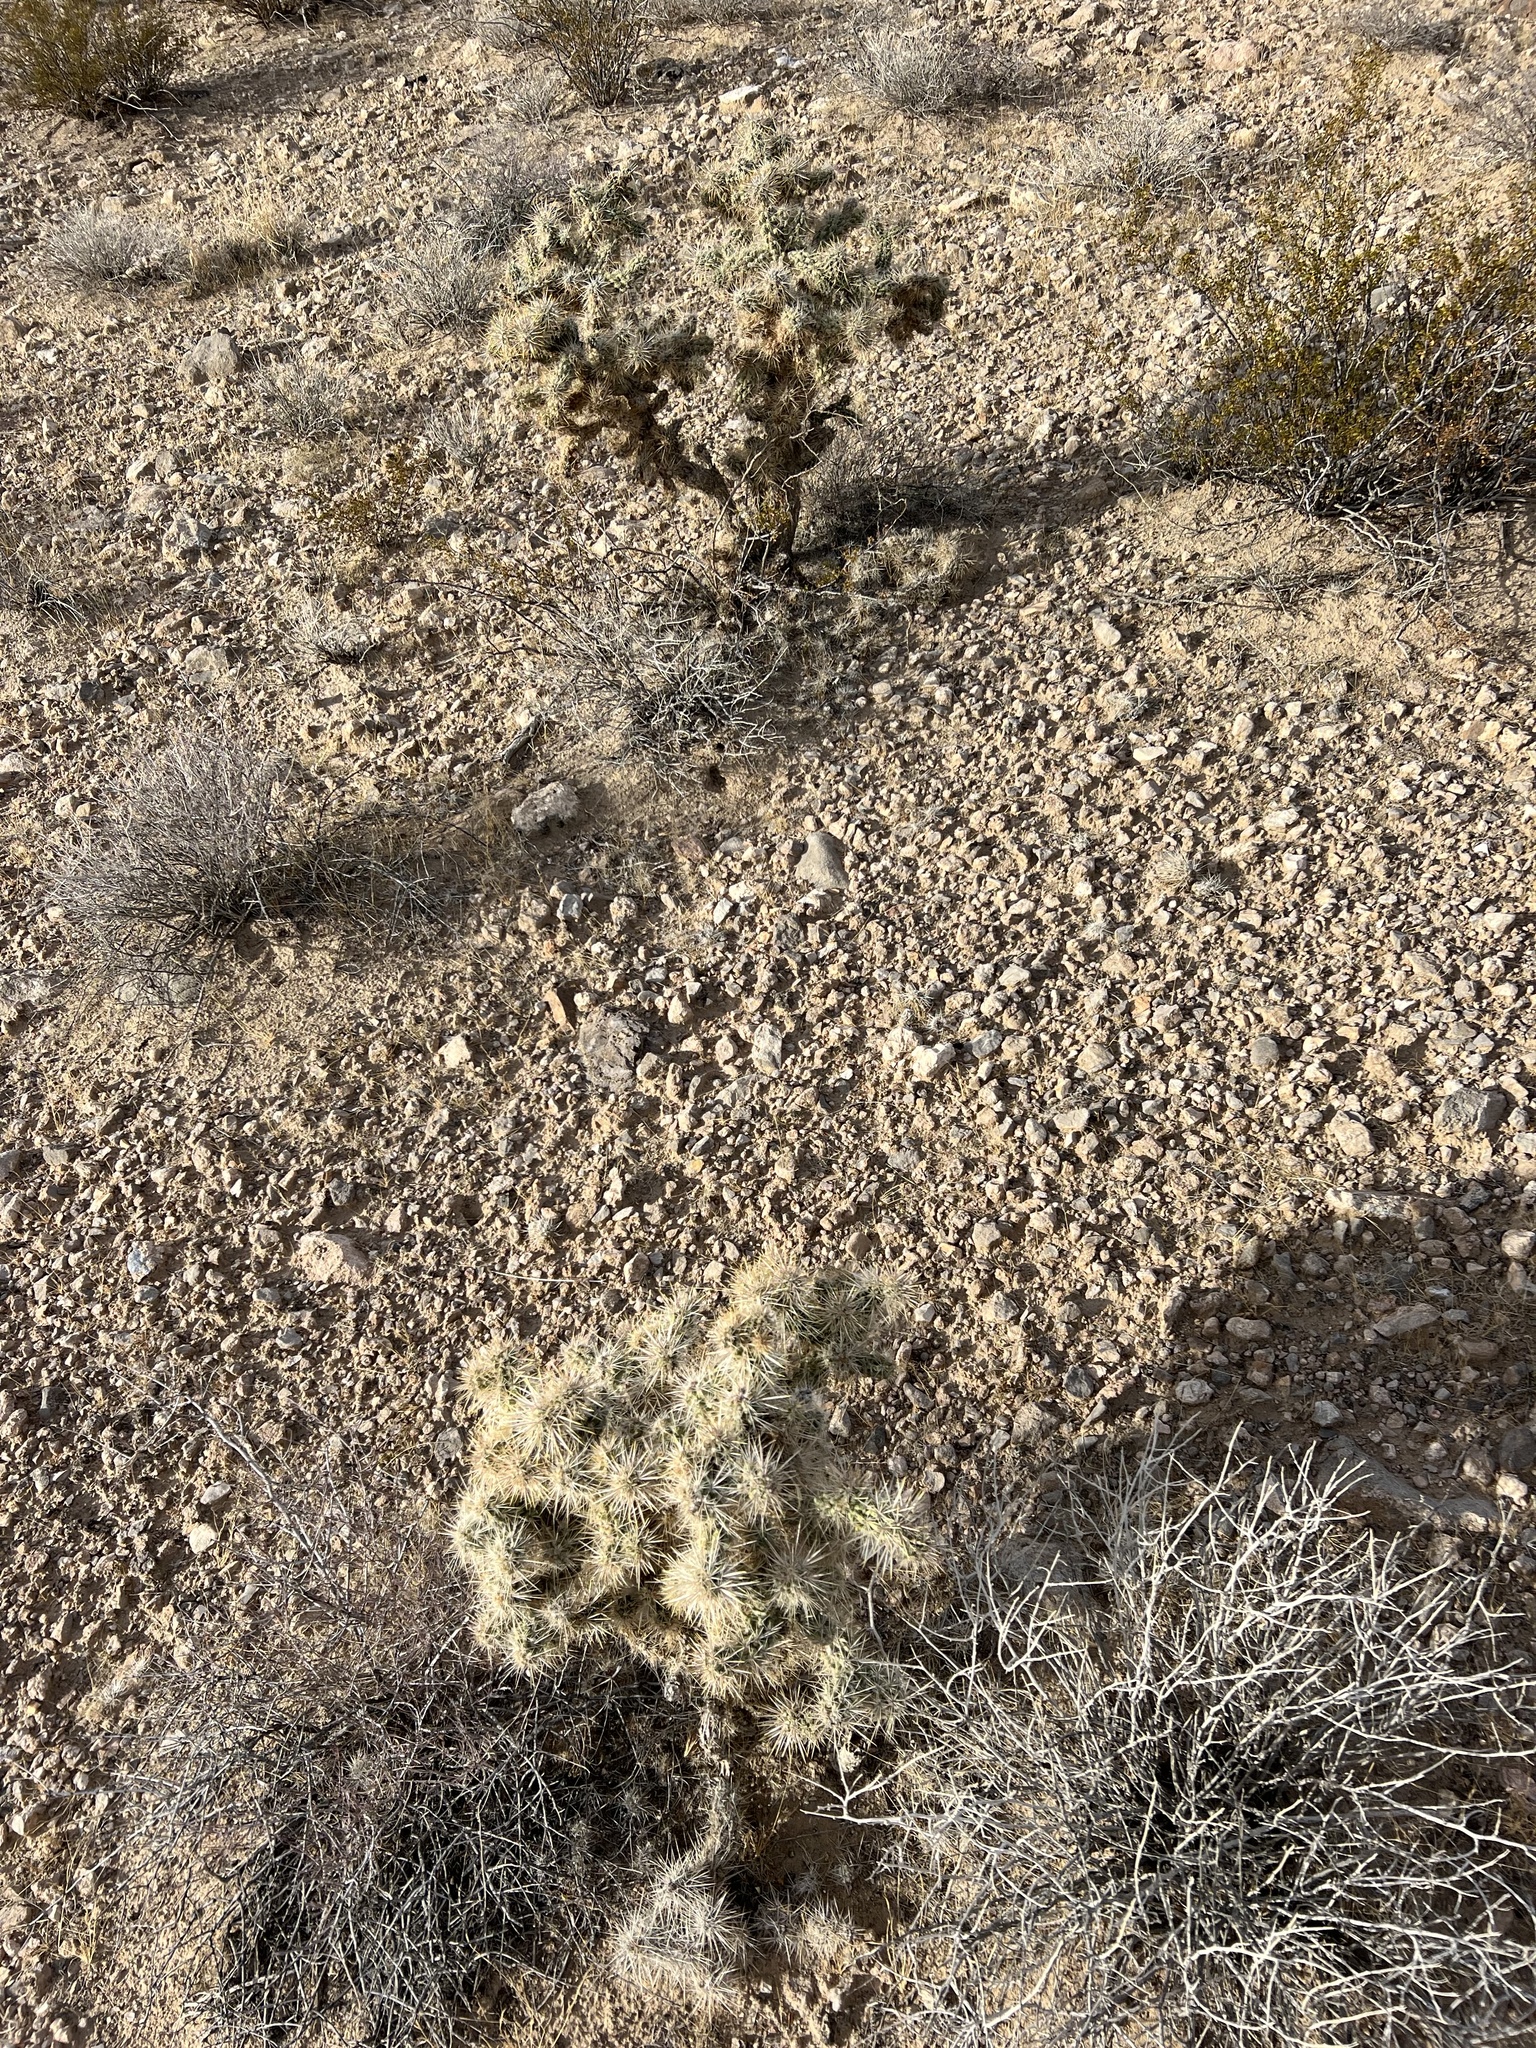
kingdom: Plantae
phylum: Tracheophyta
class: Magnoliopsida
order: Caryophyllales
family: Cactaceae
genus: Cylindropuntia
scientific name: Cylindropuntia echinocarpa
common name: Ground cholla
